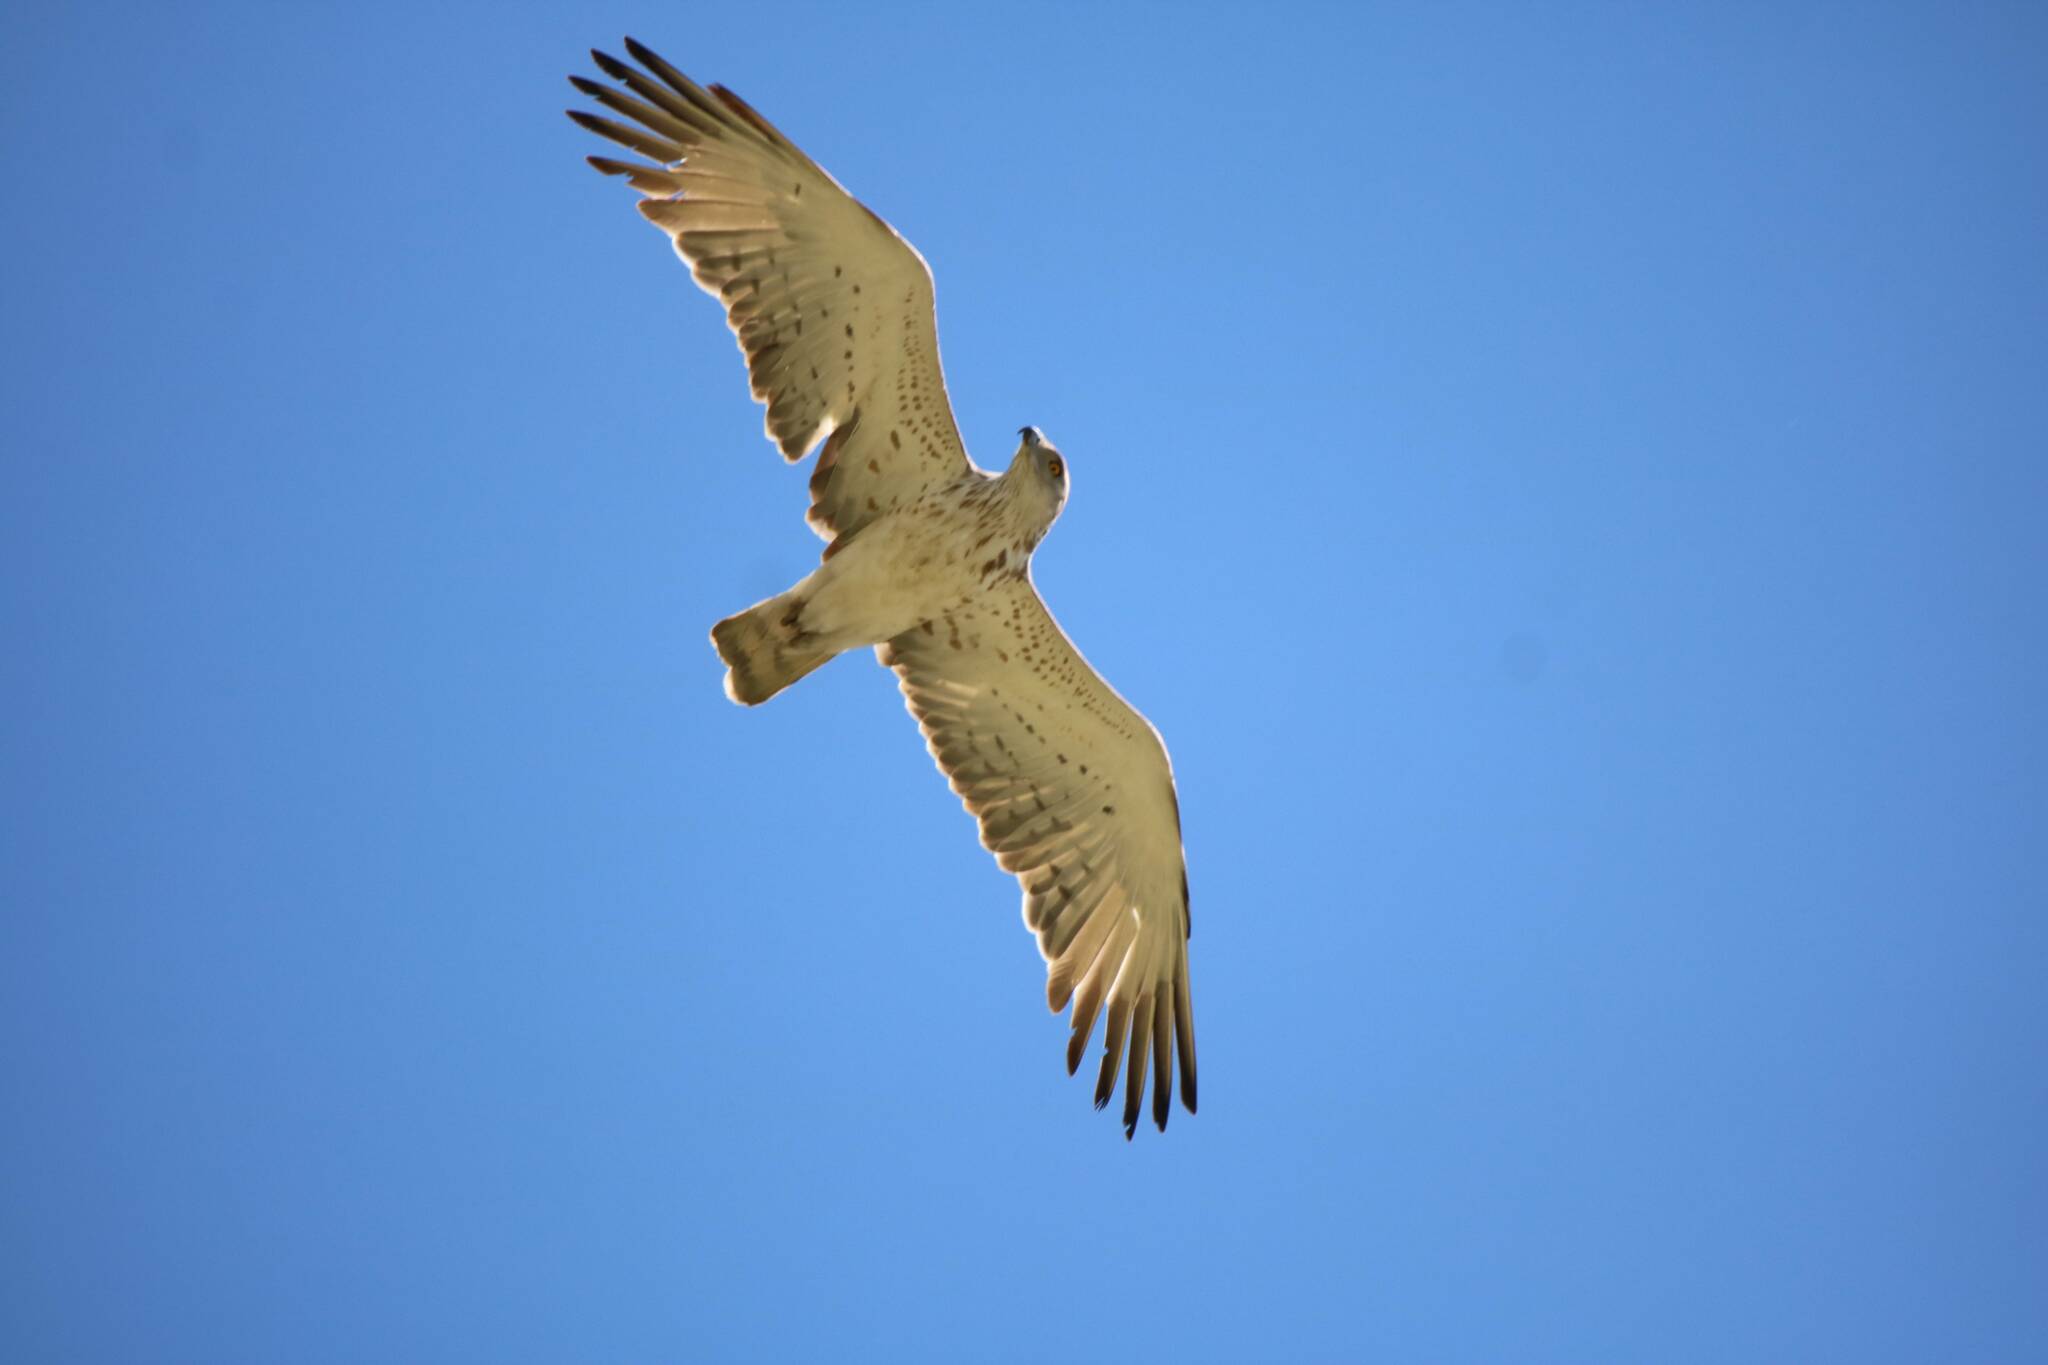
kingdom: Animalia
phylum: Chordata
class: Aves
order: Accipitriformes
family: Accipitridae
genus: Circaetus
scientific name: Circaetus gallicus
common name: Short-toed snake eagle
